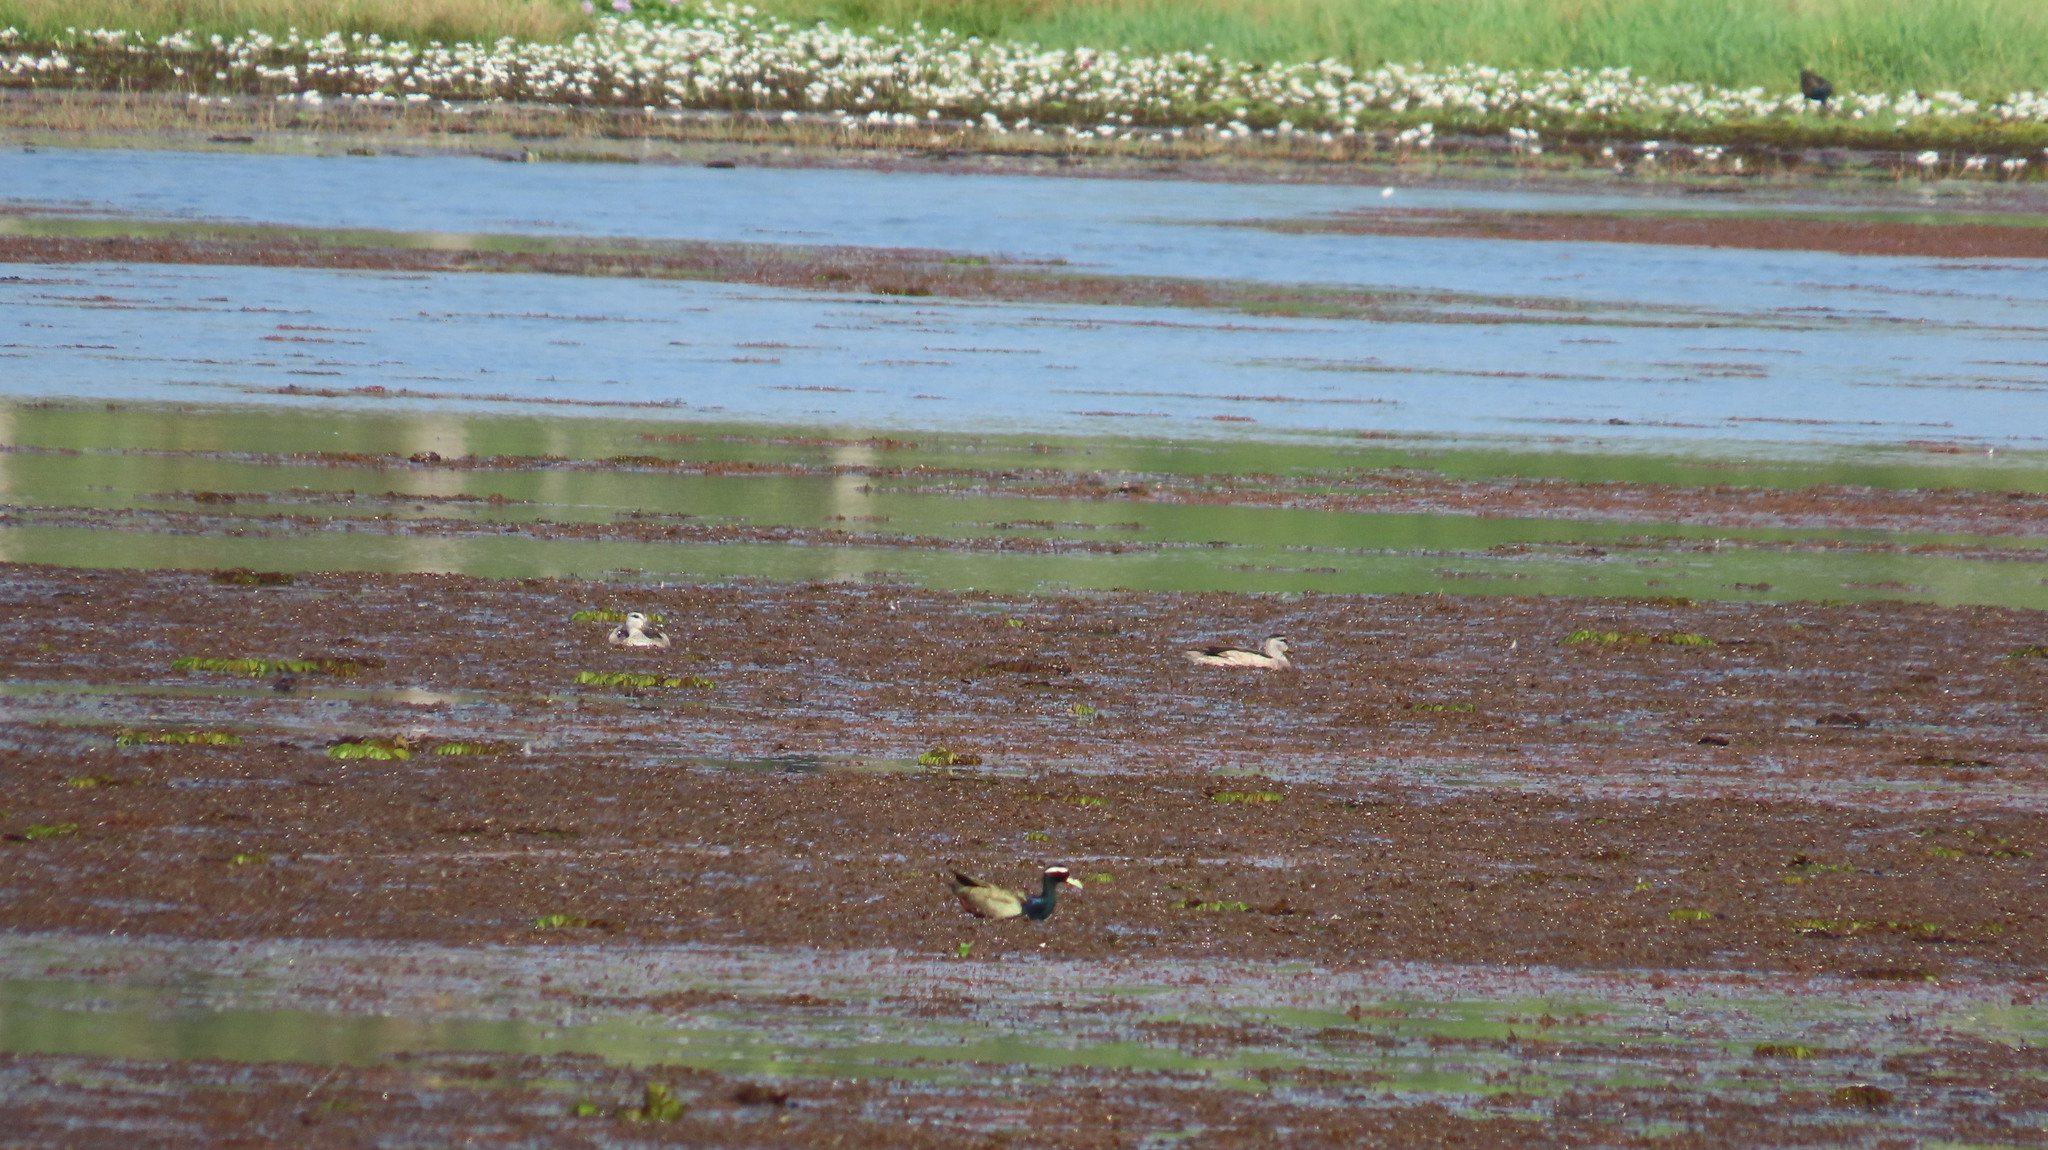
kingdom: Animalia
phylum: Chordata
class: Aves
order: Charadriiformes
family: Jacanidae
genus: Metopidius
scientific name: Metopidius indicus
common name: Bronze-winged jacana
